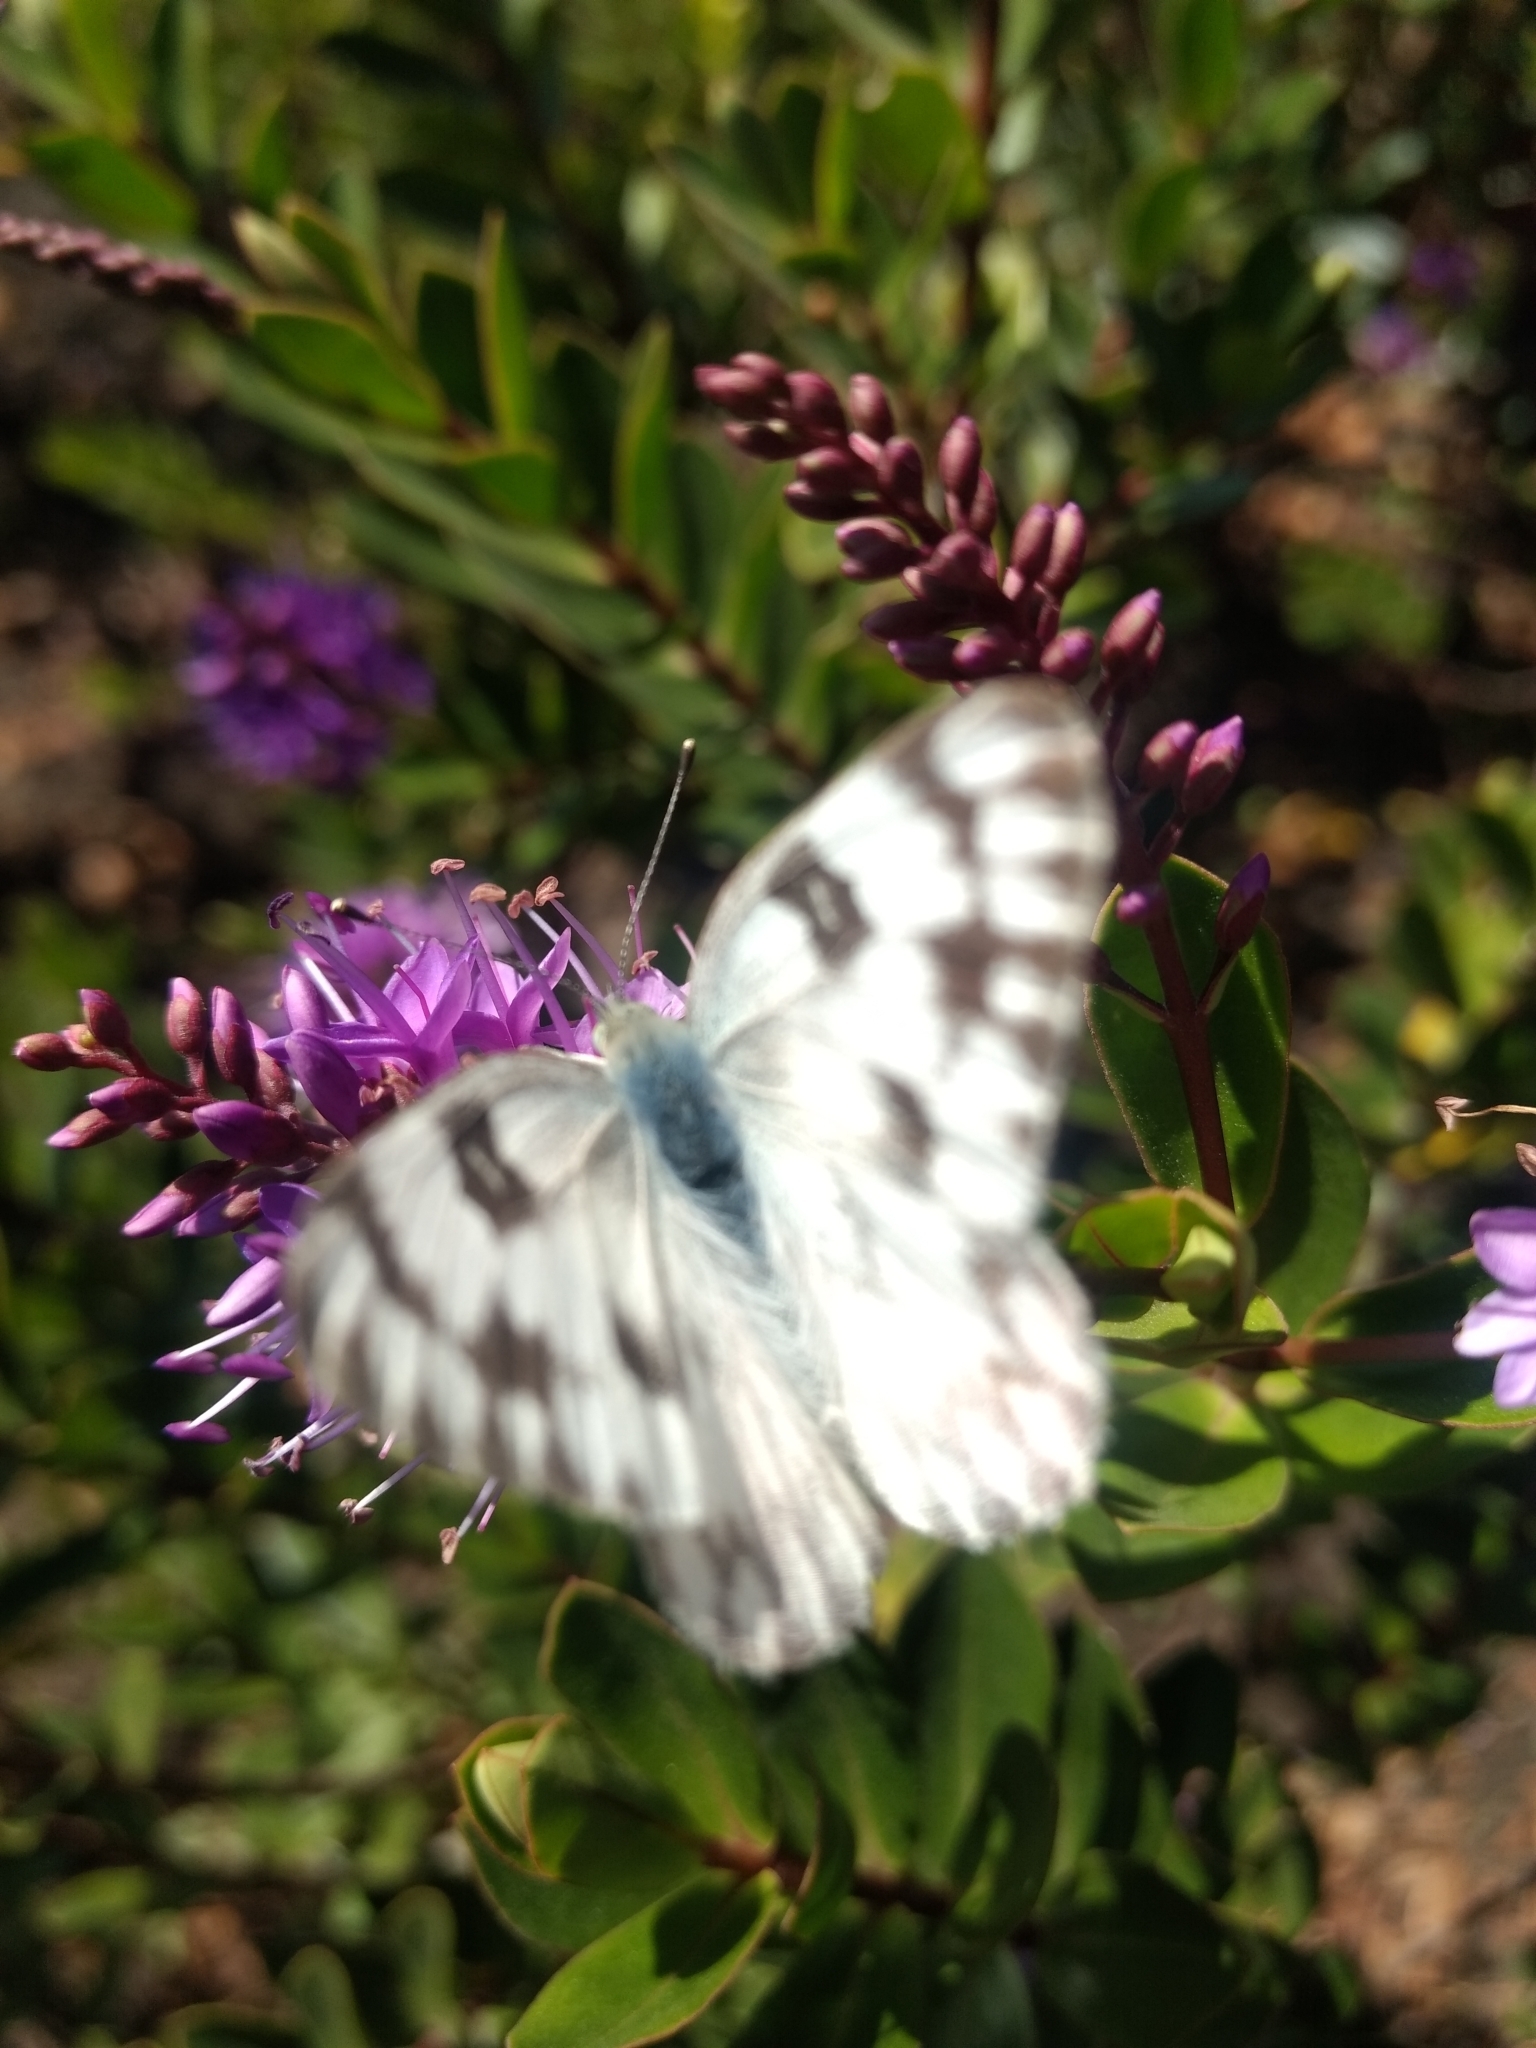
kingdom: Animalia
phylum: Arthropoda
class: Insecta
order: Lepidoptera
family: Pieridae
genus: Pontia
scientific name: Pontia protodice
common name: Checkered white
